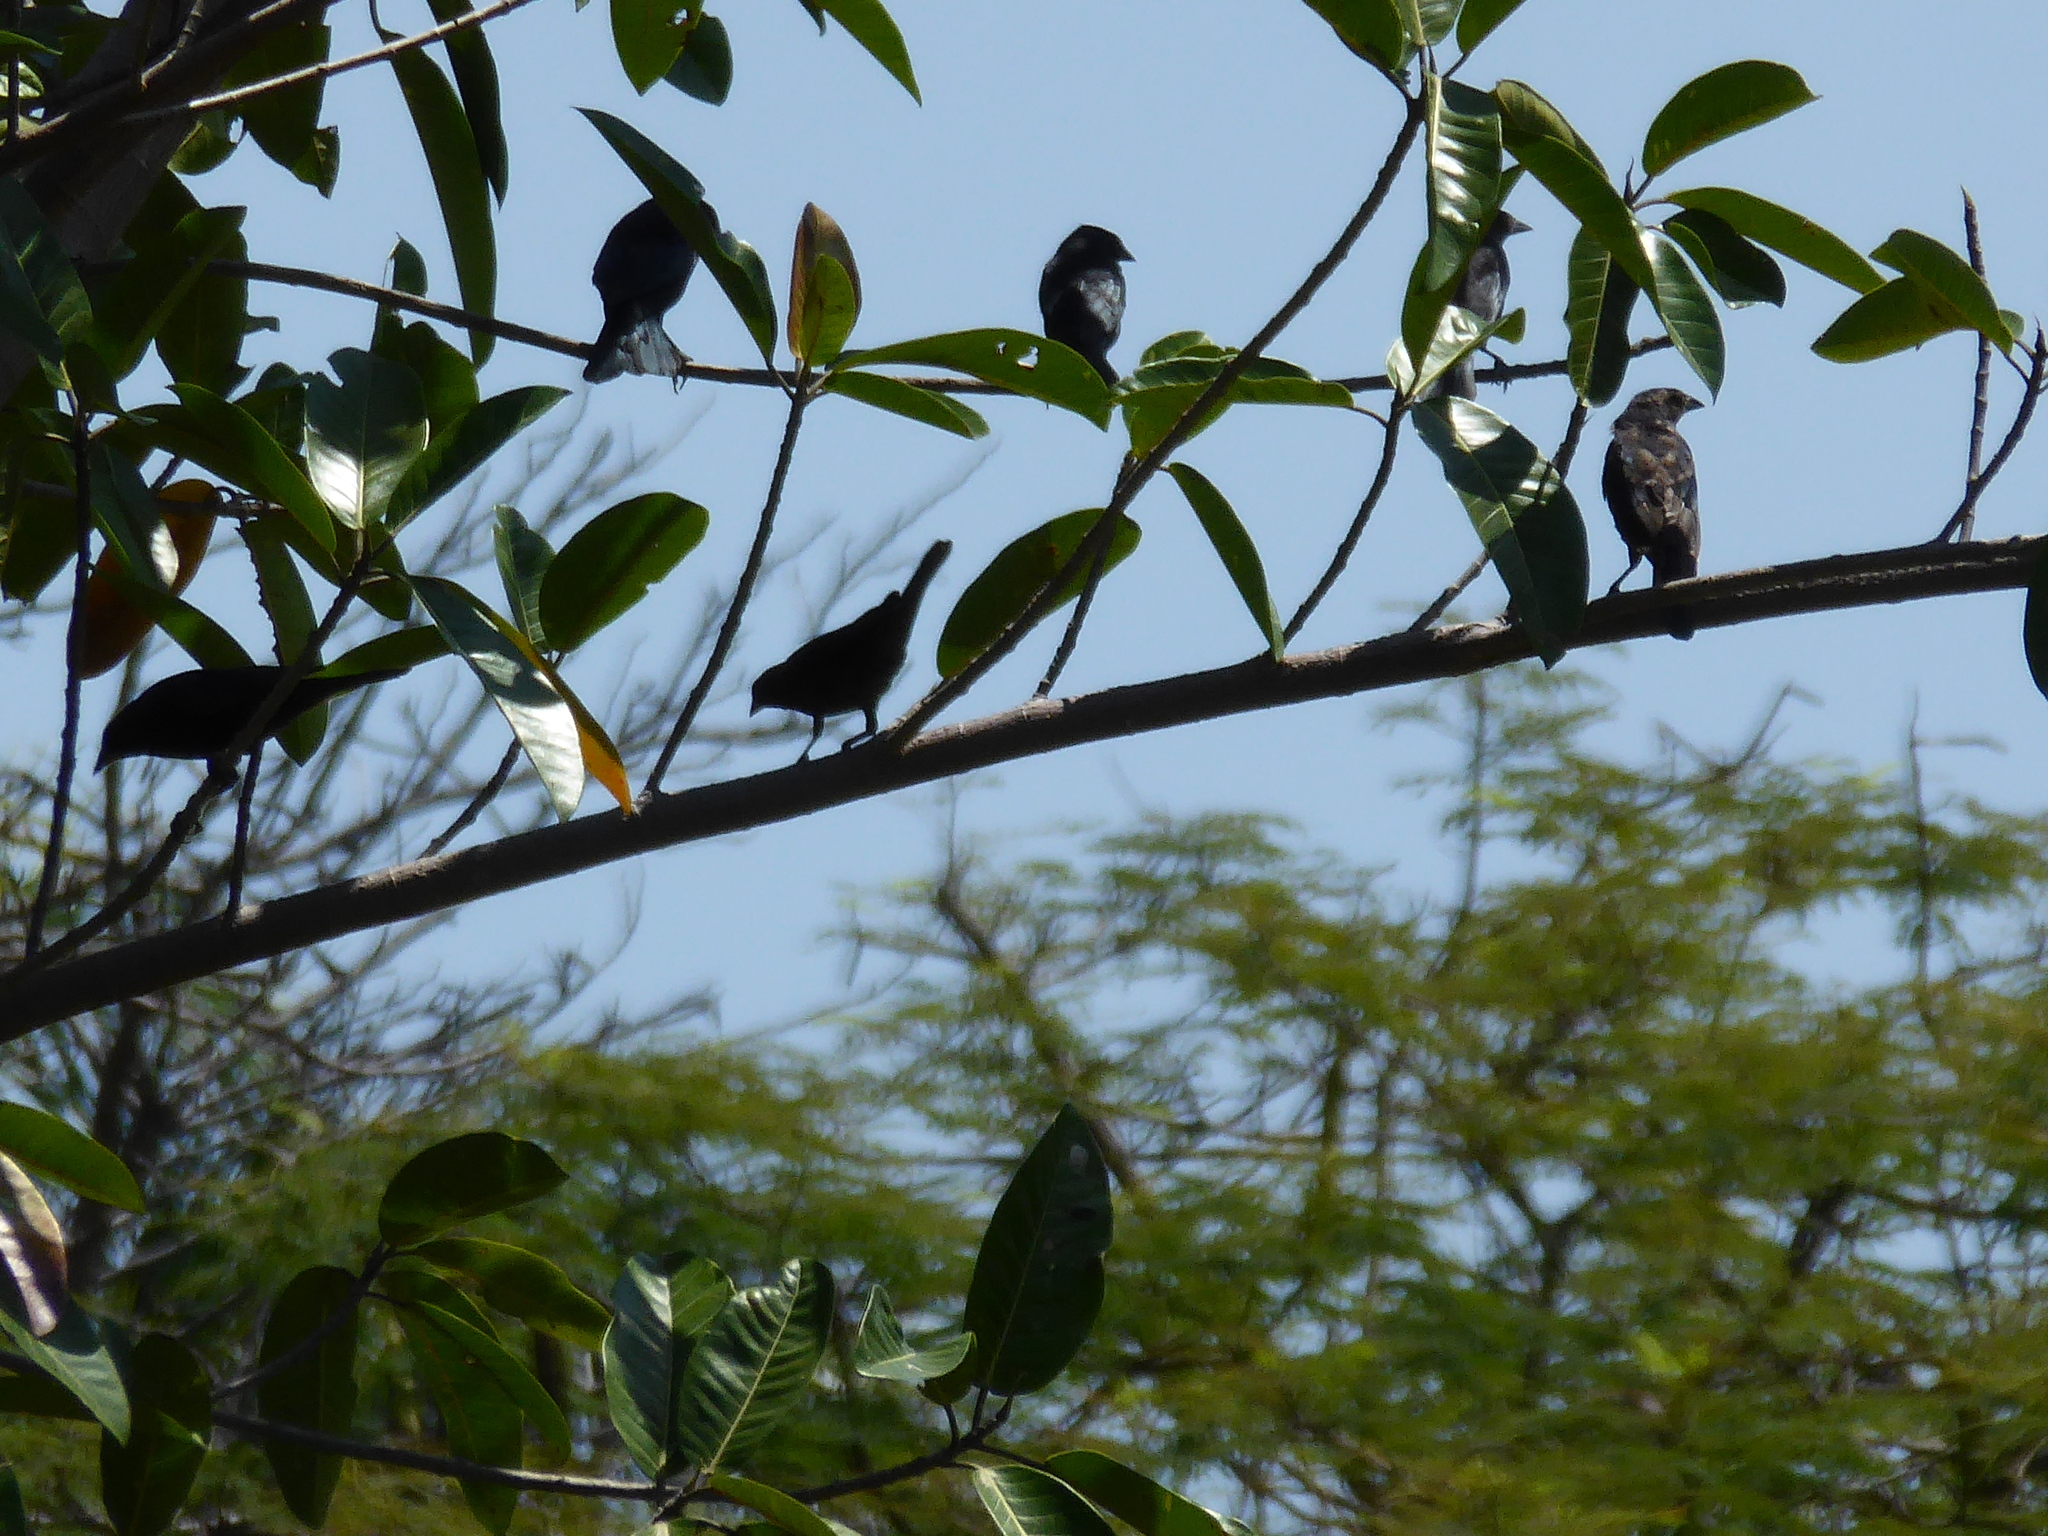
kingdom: Animalia
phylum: Chordata
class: Aves
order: Passeriformes
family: Icteridae
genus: Molothrus
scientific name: Molothrus ater
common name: Brown-headed cowbird
